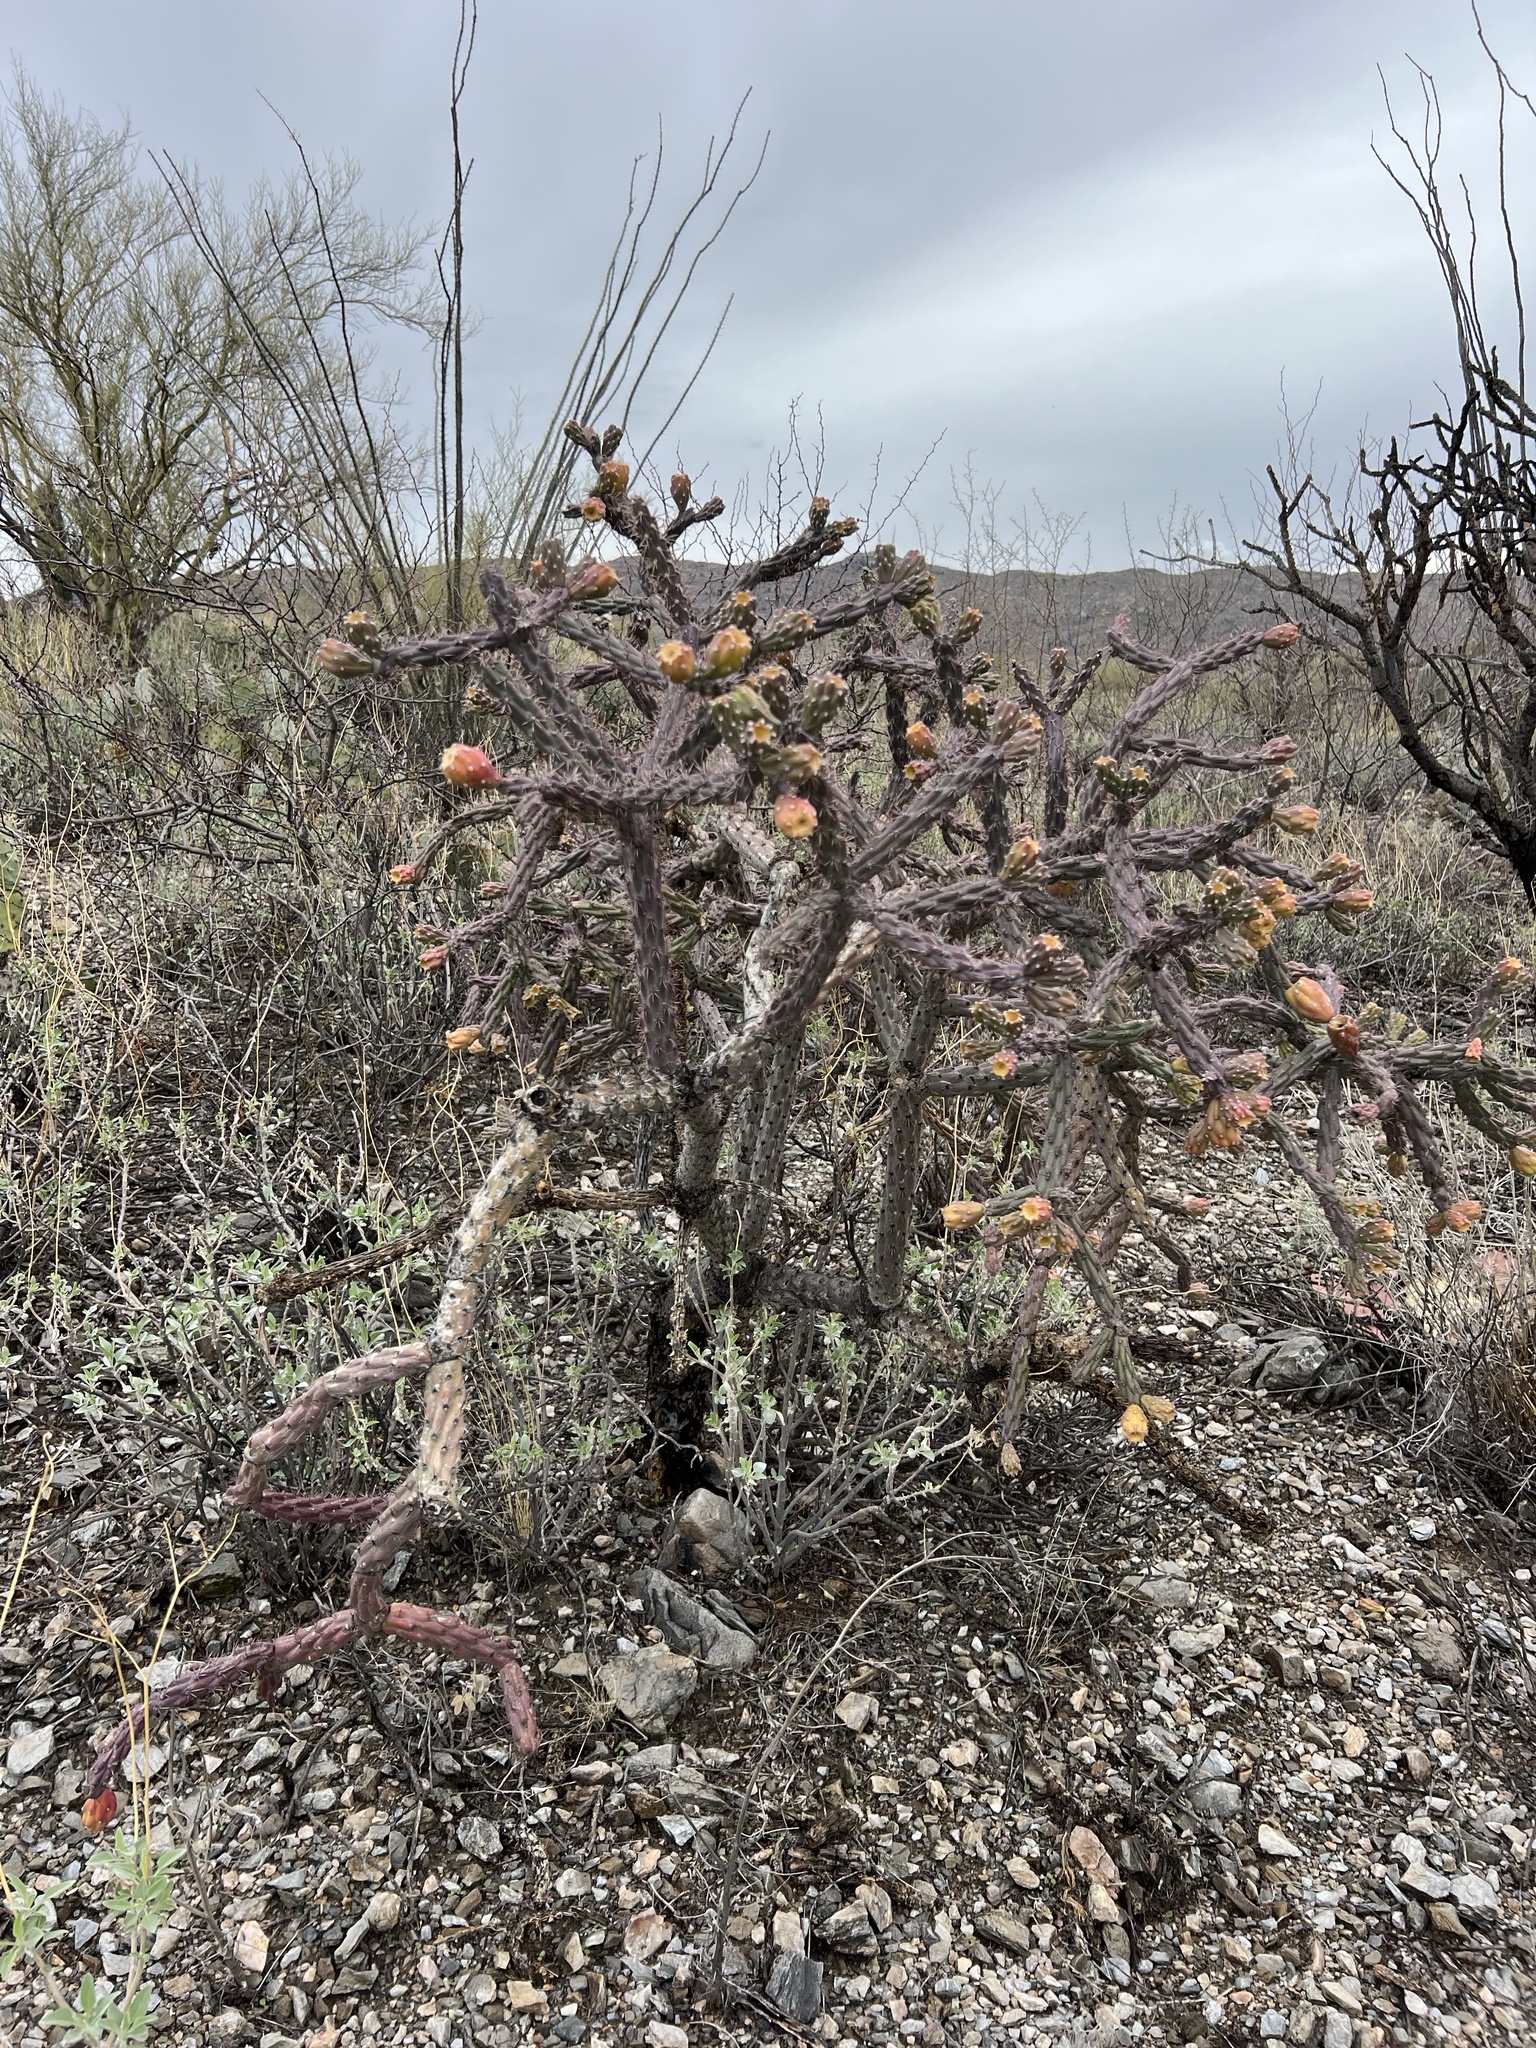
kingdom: Plantae
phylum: Tracheophyta
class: Magnoliopsida
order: Caryophyllales
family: Cactaceae
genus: Cylindropuntia
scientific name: Cylindropuntia thurberi
